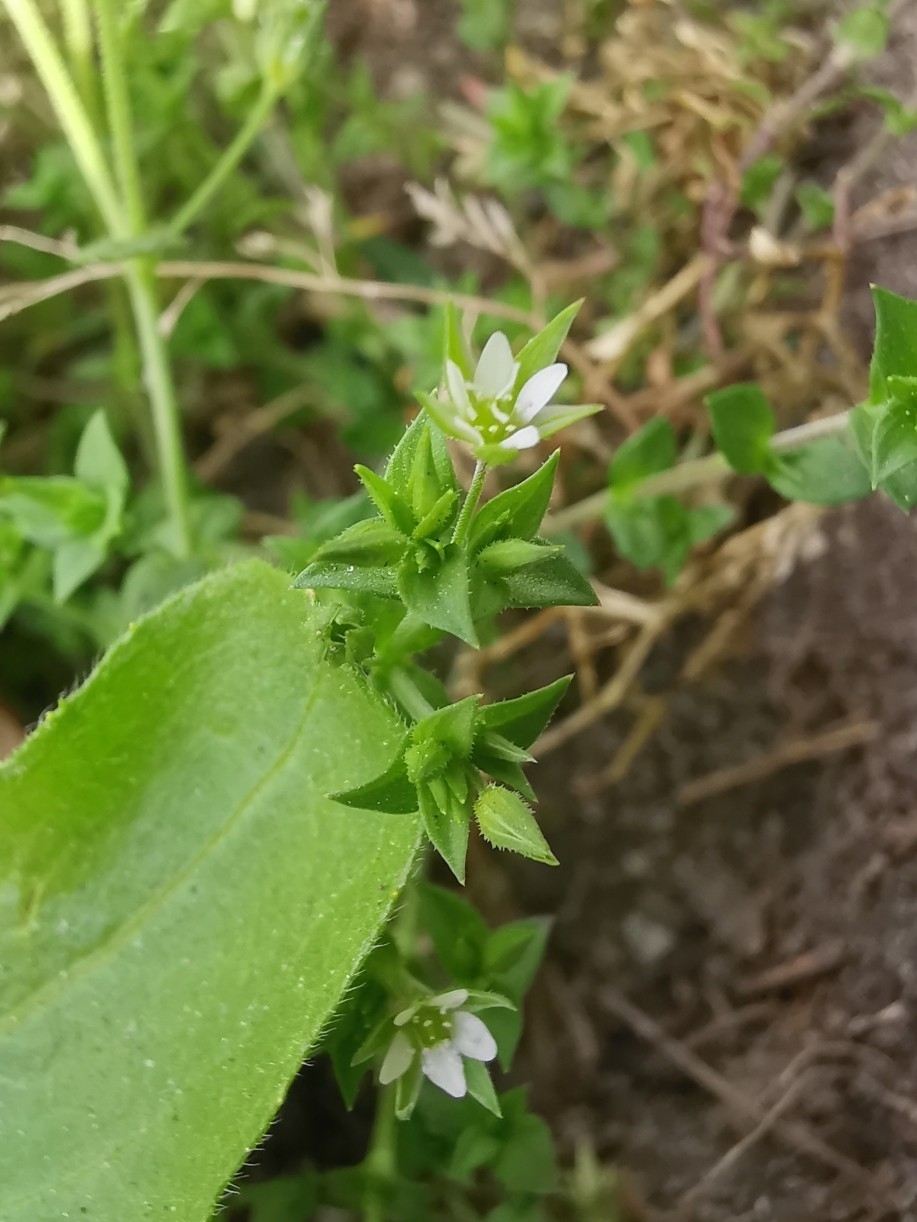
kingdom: Plantae
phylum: Tracheophyta
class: Magnoliopsida
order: Caryophyllales
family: Caryophyllaceae
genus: Arenaria
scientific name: Arenaria serpyllifolia
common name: Thyme-leaved sandwort
